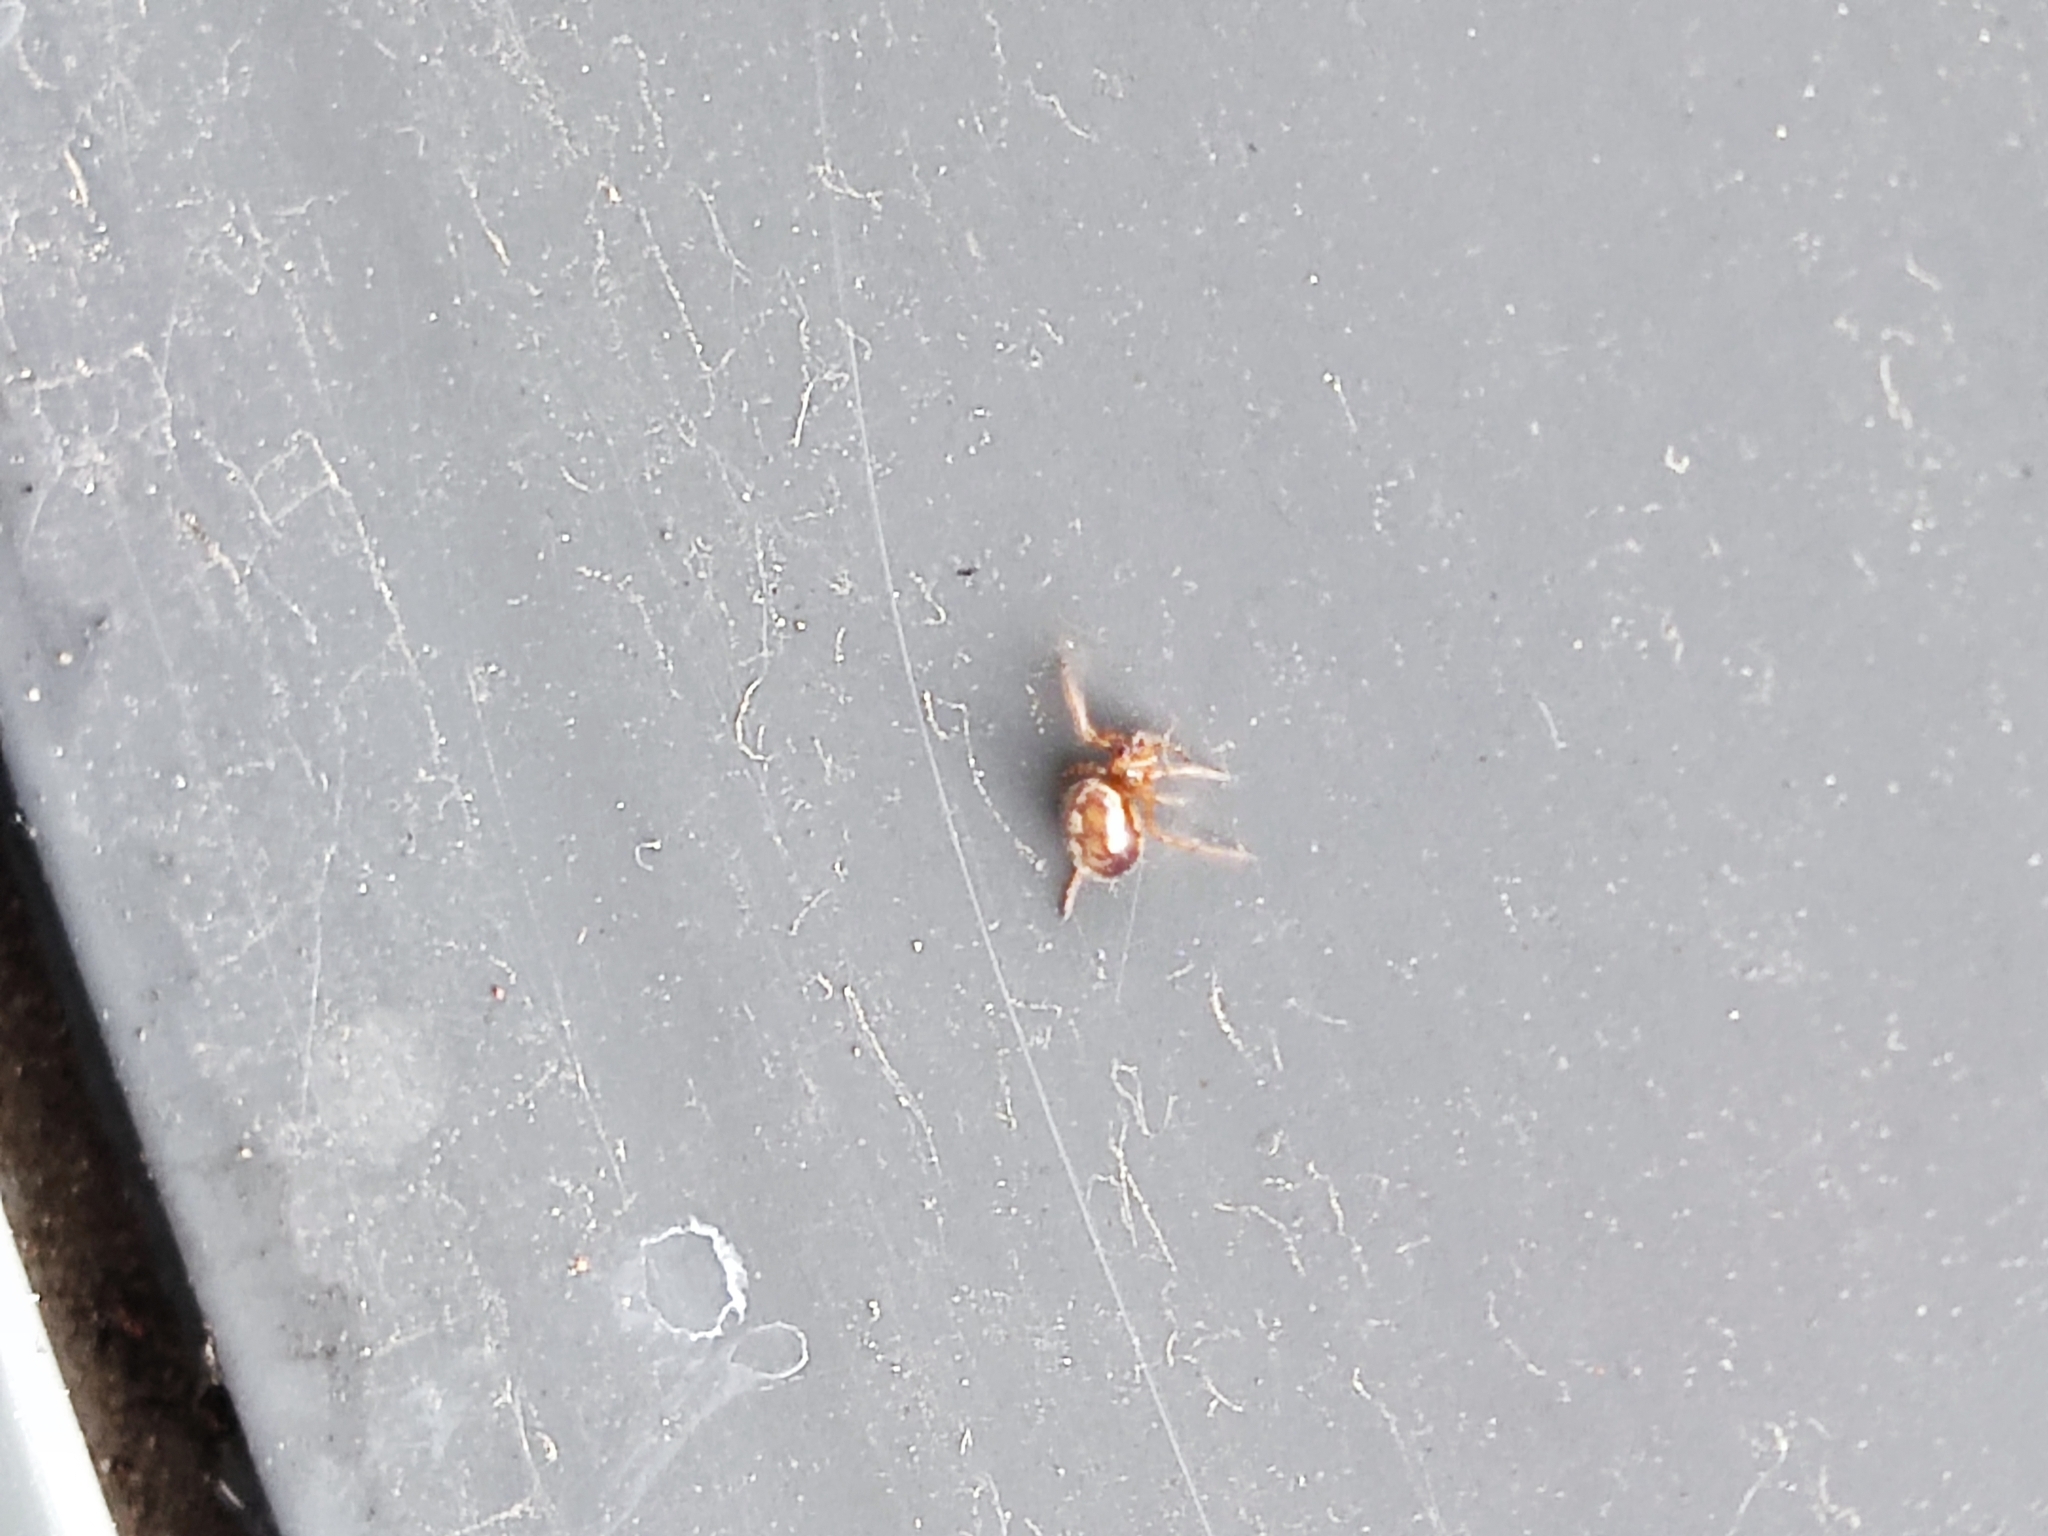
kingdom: Animalia
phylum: Arthropoda
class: Arachnida
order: Araneae
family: Theridiidae
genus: Steatoda
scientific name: Steatoda bipunctata
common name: False widow
